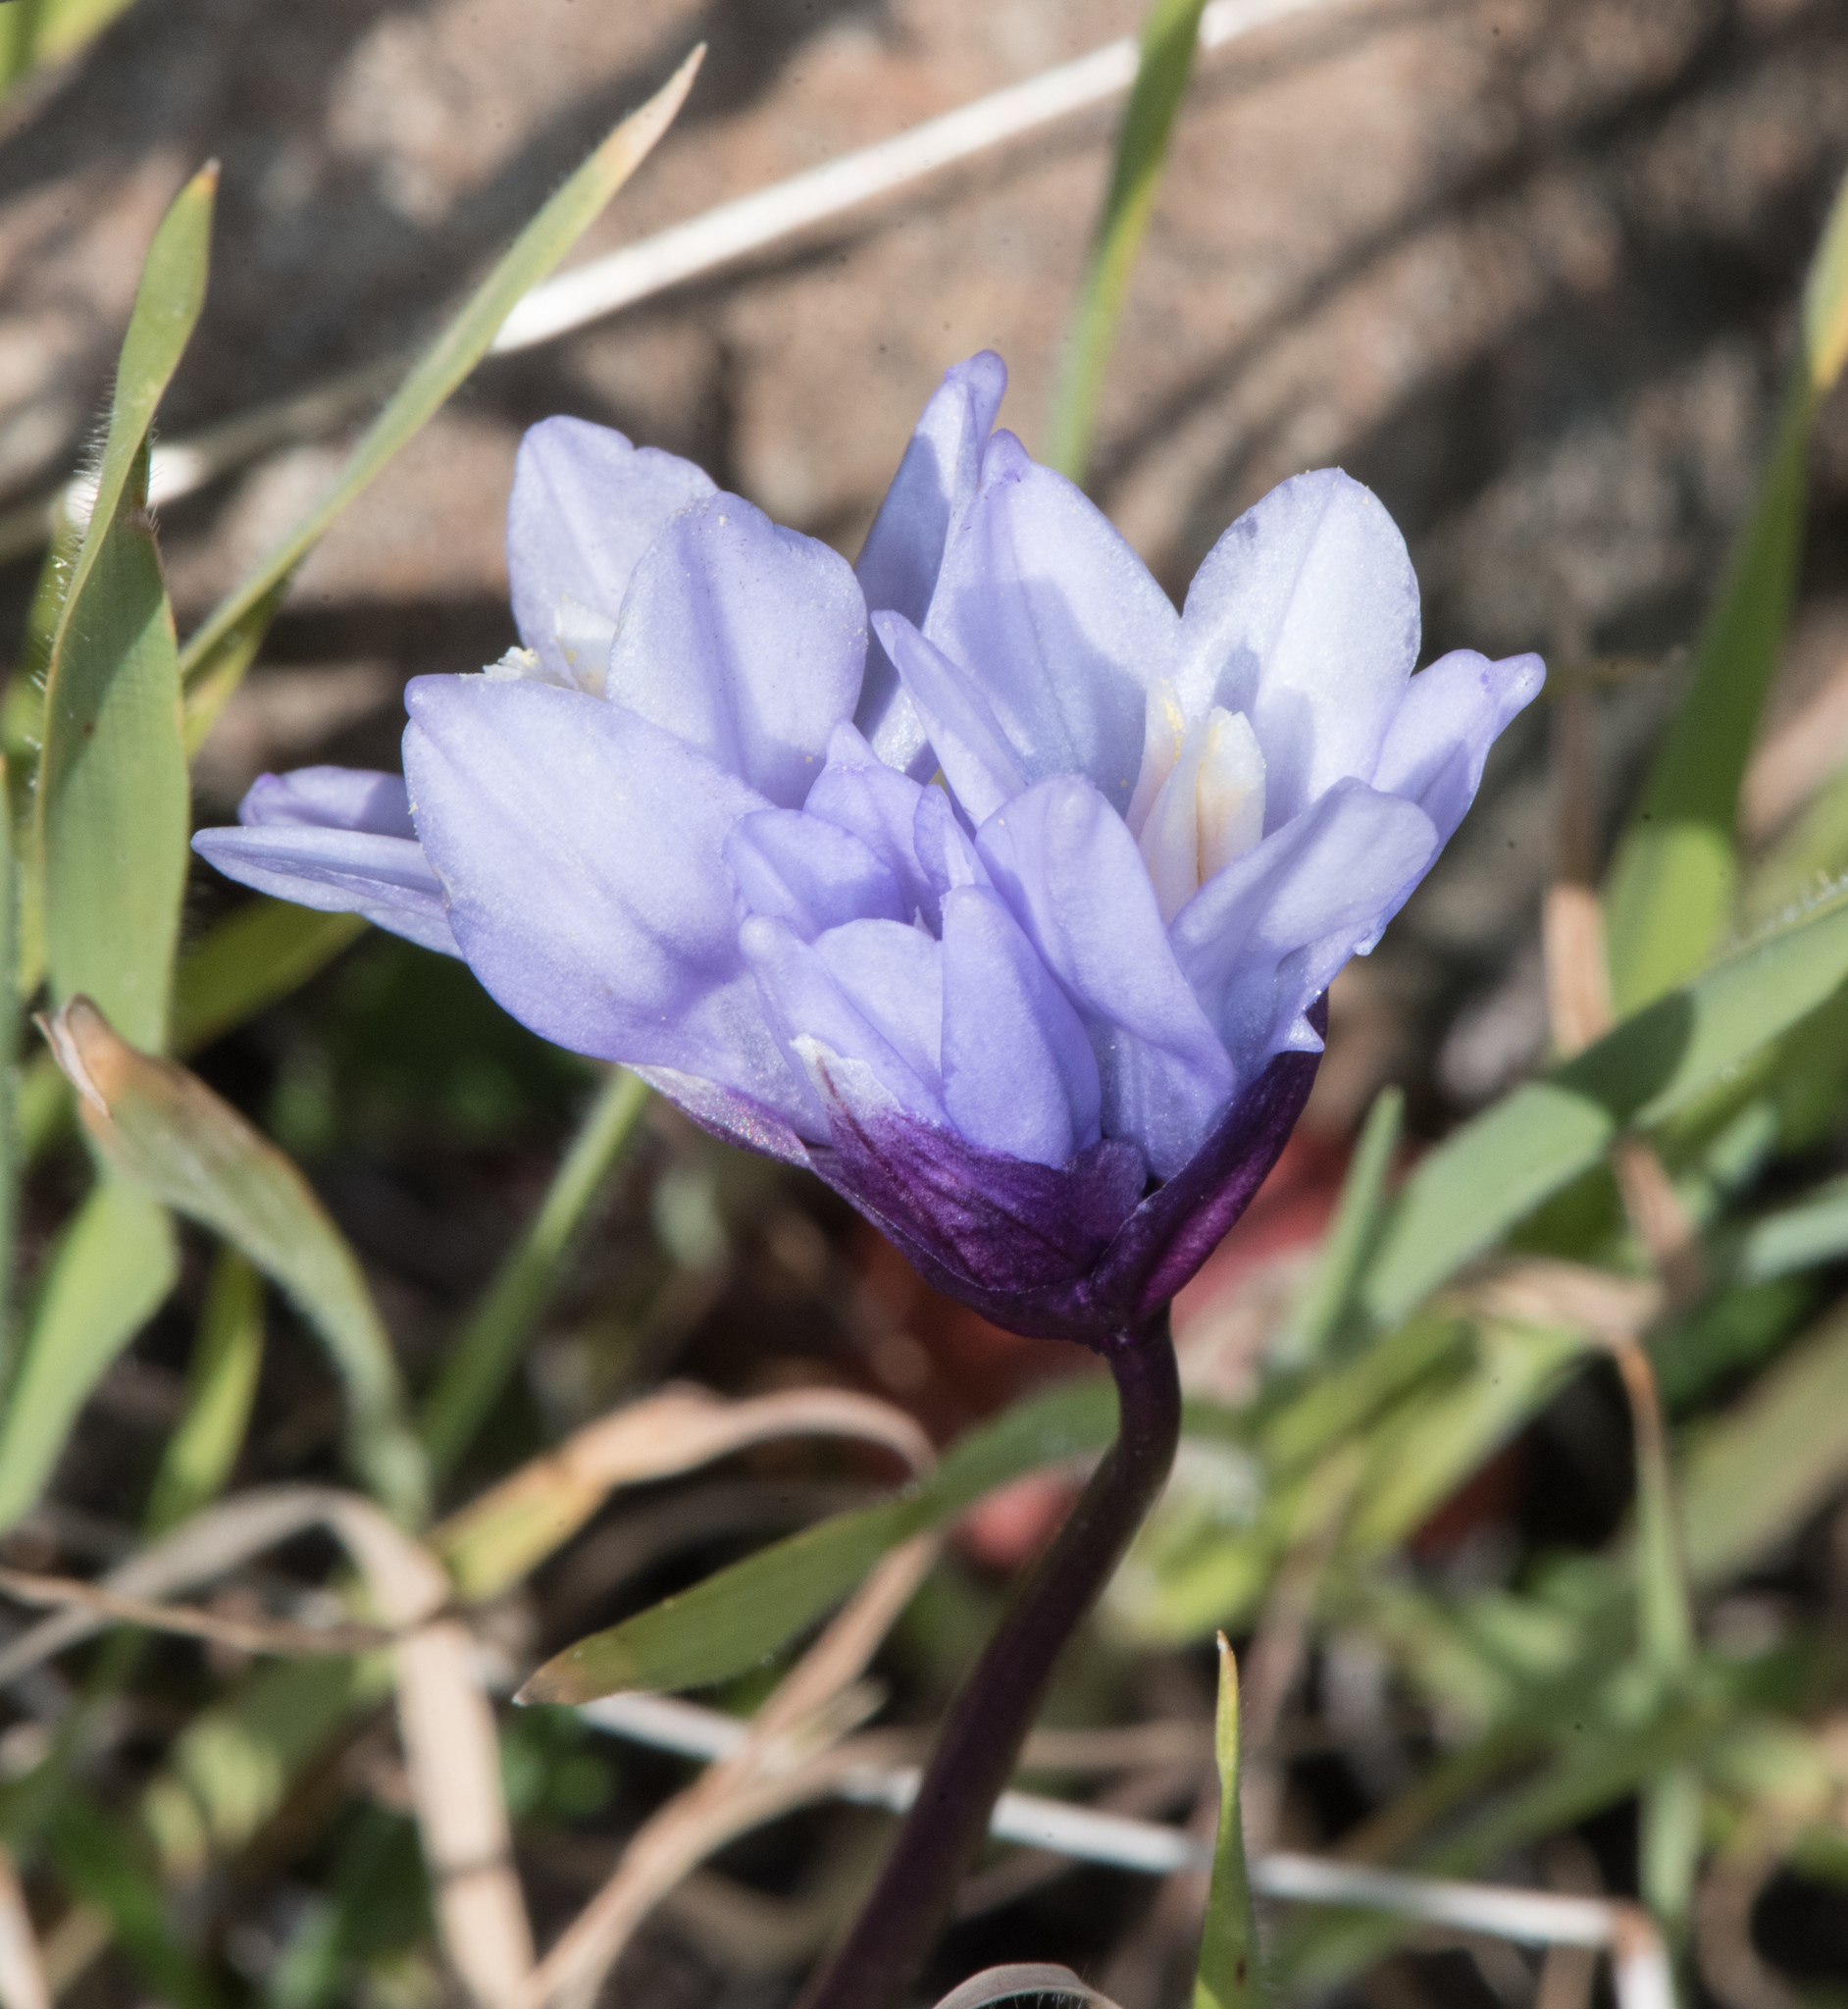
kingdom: Plantae
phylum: Tracheophyta
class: Liliopsida
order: Asparagales
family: Asparagaceae
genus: Dipterostemon
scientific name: Dipterostemon capitatus
